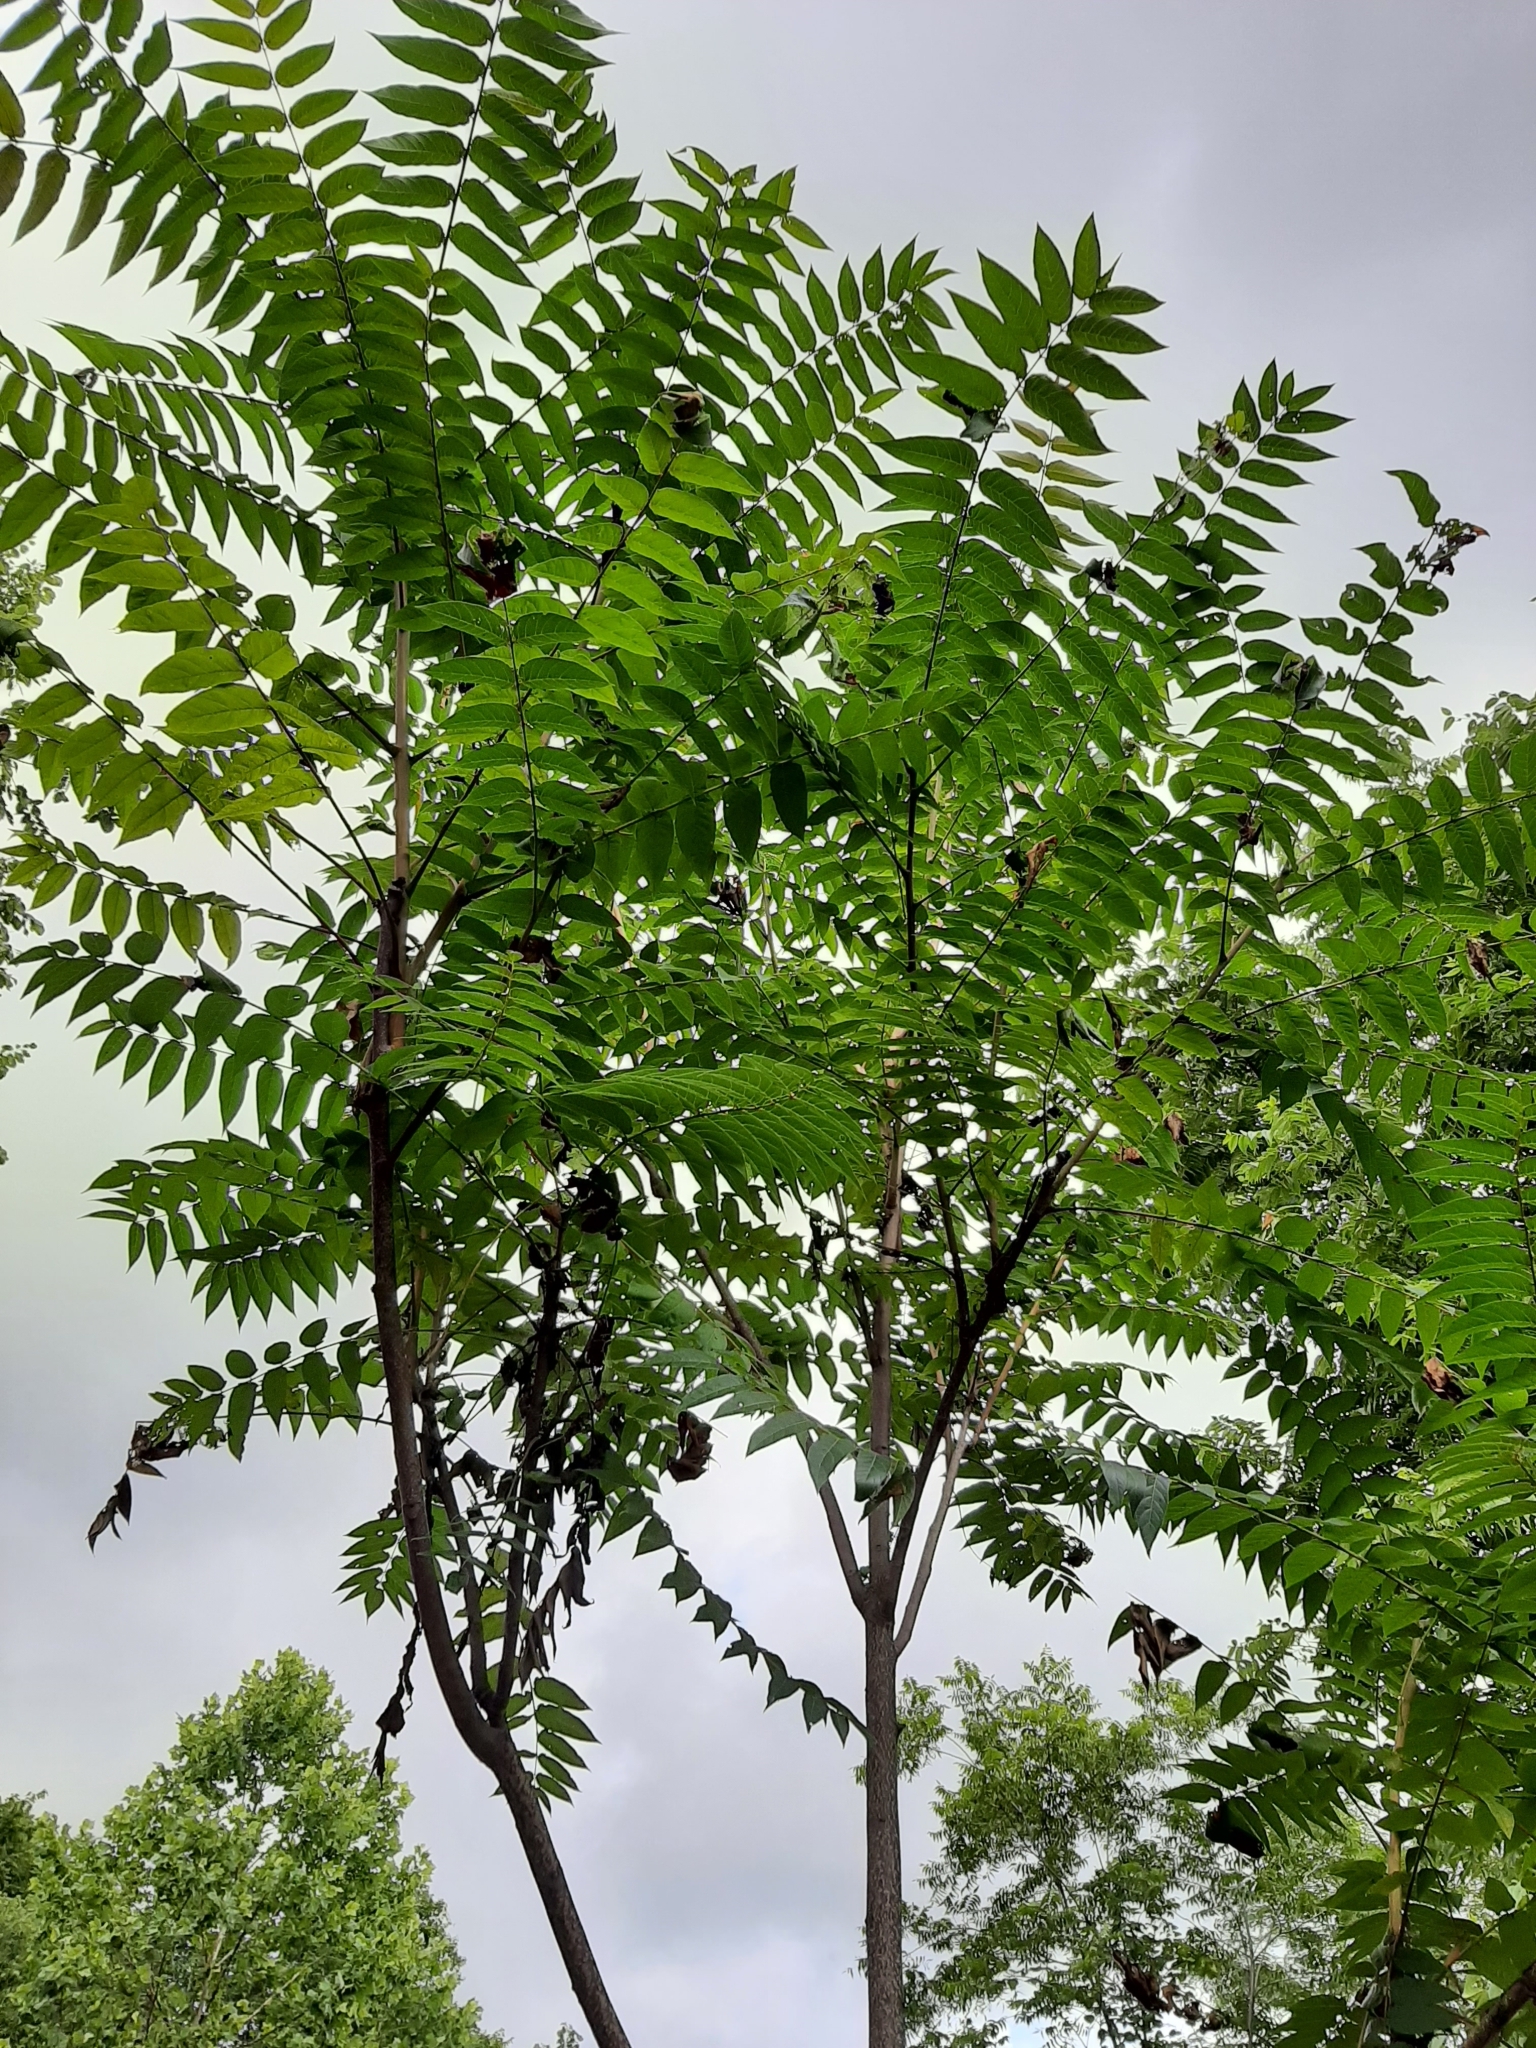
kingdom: Plantae
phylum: Tracheophyta
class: Magnoliopsida
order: Sapindales
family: Simaroubaceae
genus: Ailanthus
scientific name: Ailanthus altissima
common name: Tree-of-heaven
